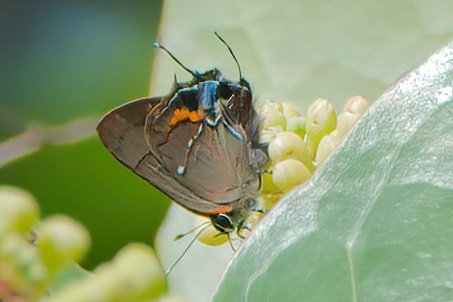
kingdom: Animalia
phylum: Arthropoda
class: Insecta
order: Lepidoptera
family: Lycaenidae
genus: Thecla
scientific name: Thecla angelia
